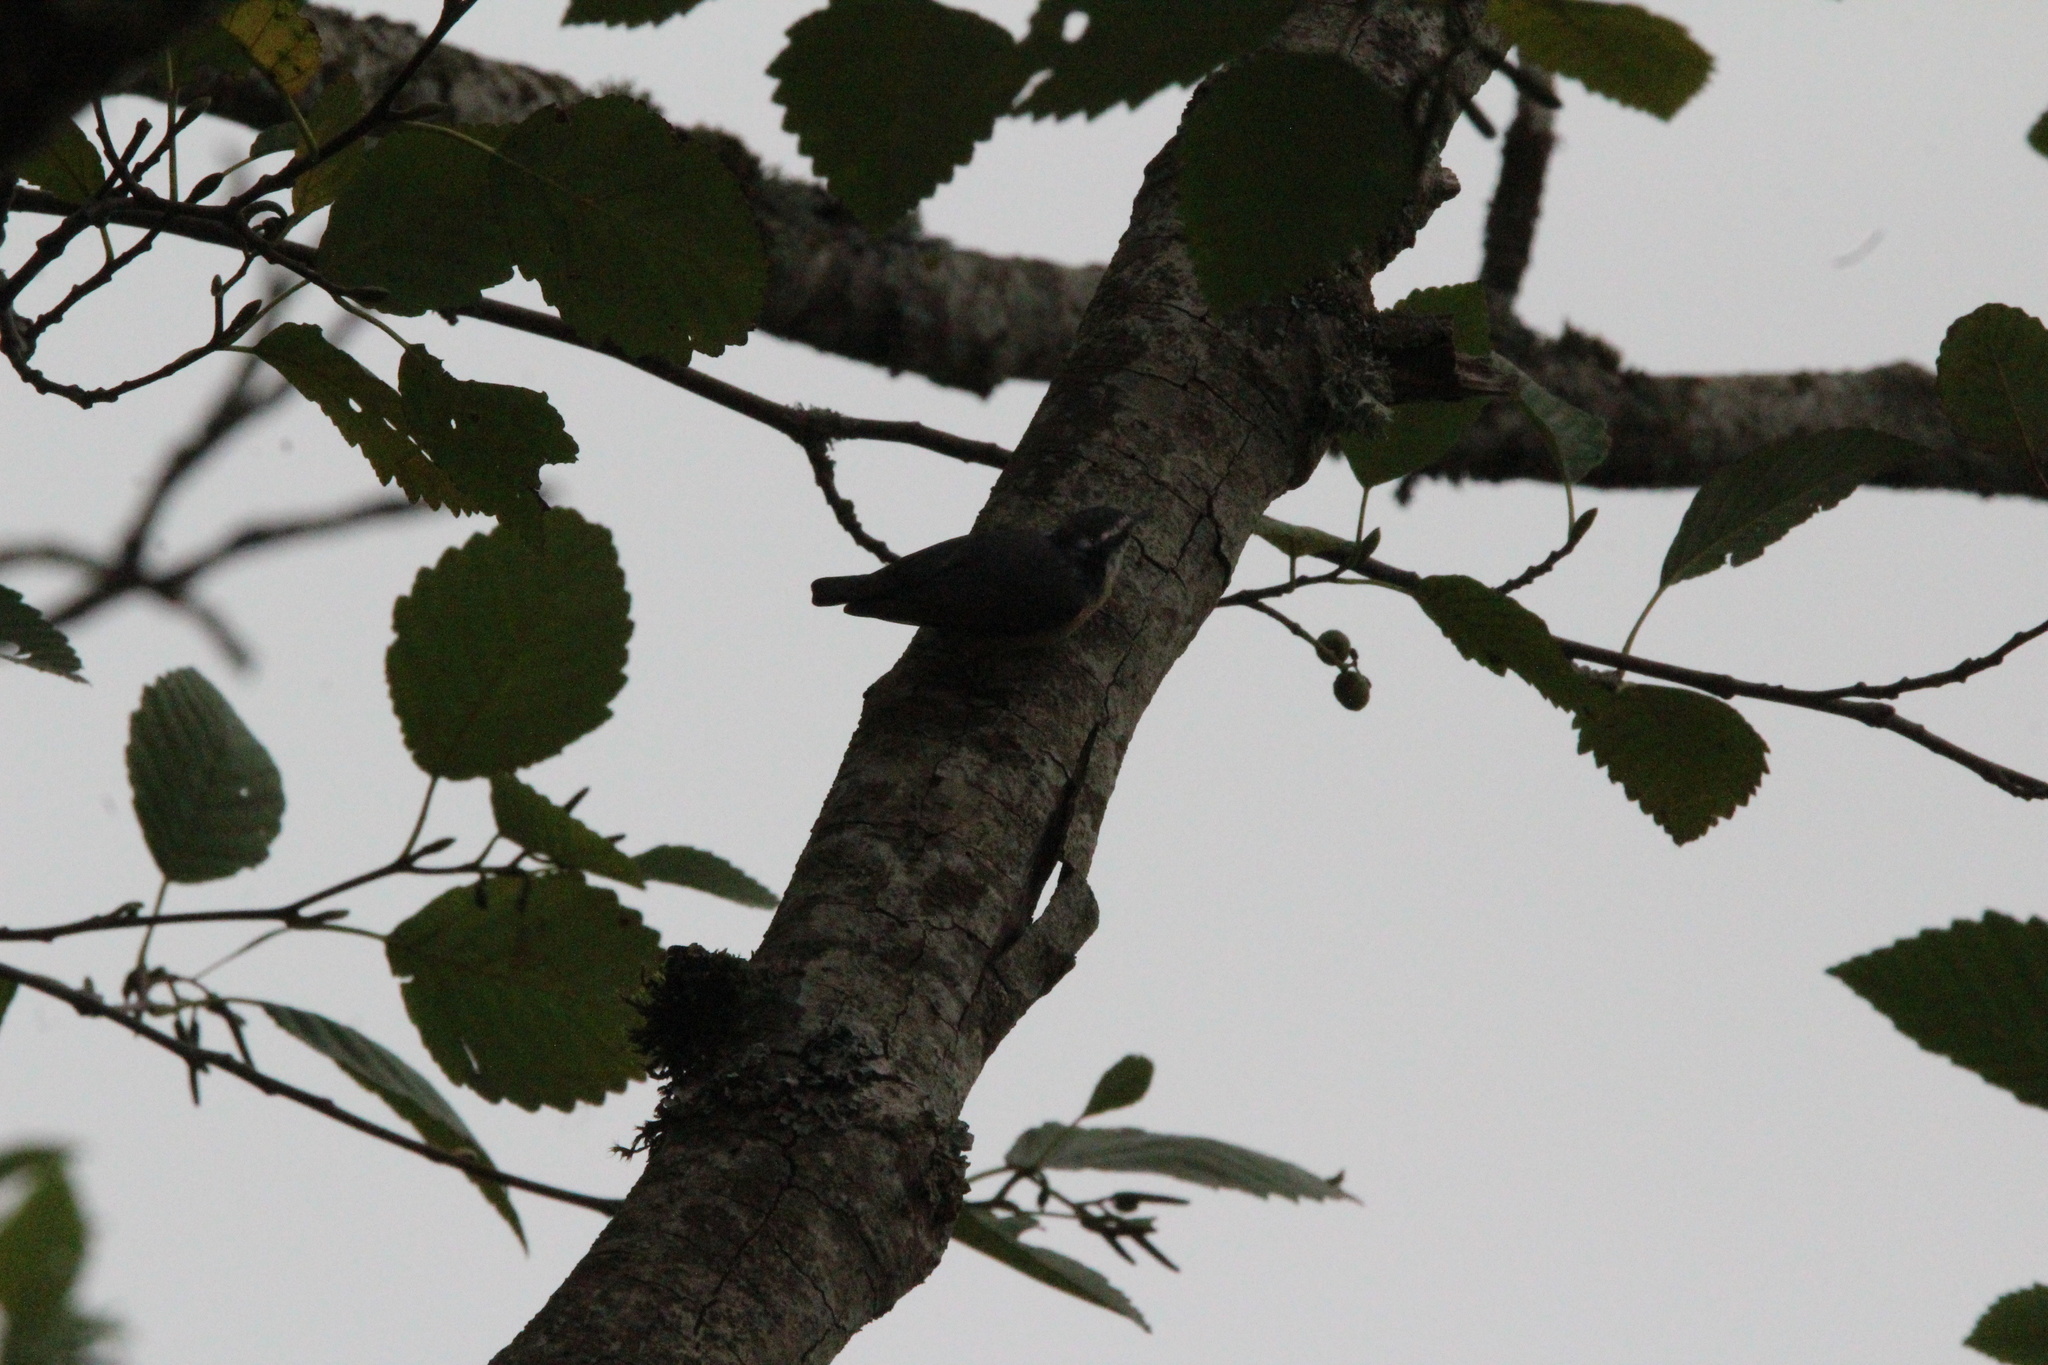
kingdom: Animalia
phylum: Chordata
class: Aves
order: Passeriformes
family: Sittidae
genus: Sitta
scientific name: Sitta canadensis
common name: Red-breasted nuthatch
